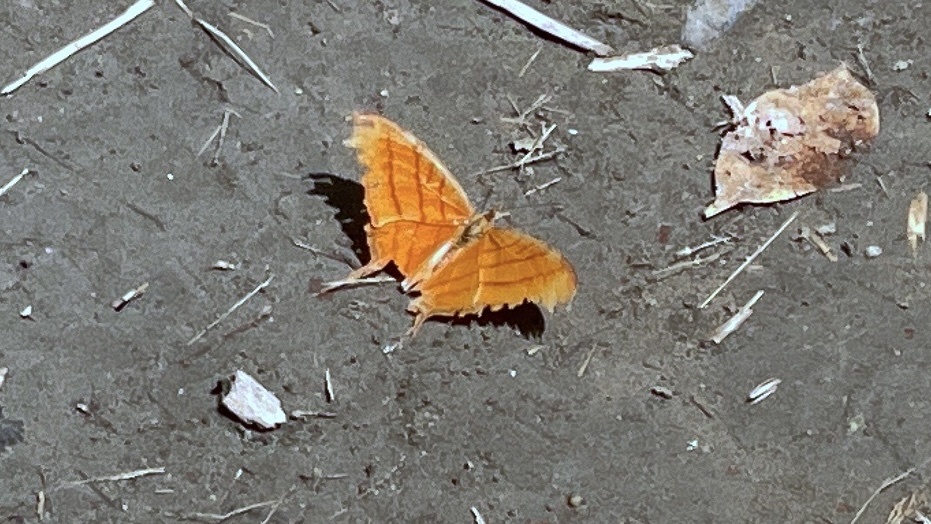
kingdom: Animalia
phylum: Arthropoda
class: Insecta
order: Lepidoptera
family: Nymphalidae
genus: Marpesia
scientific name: Marpesia petreus
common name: Red dagger wing
